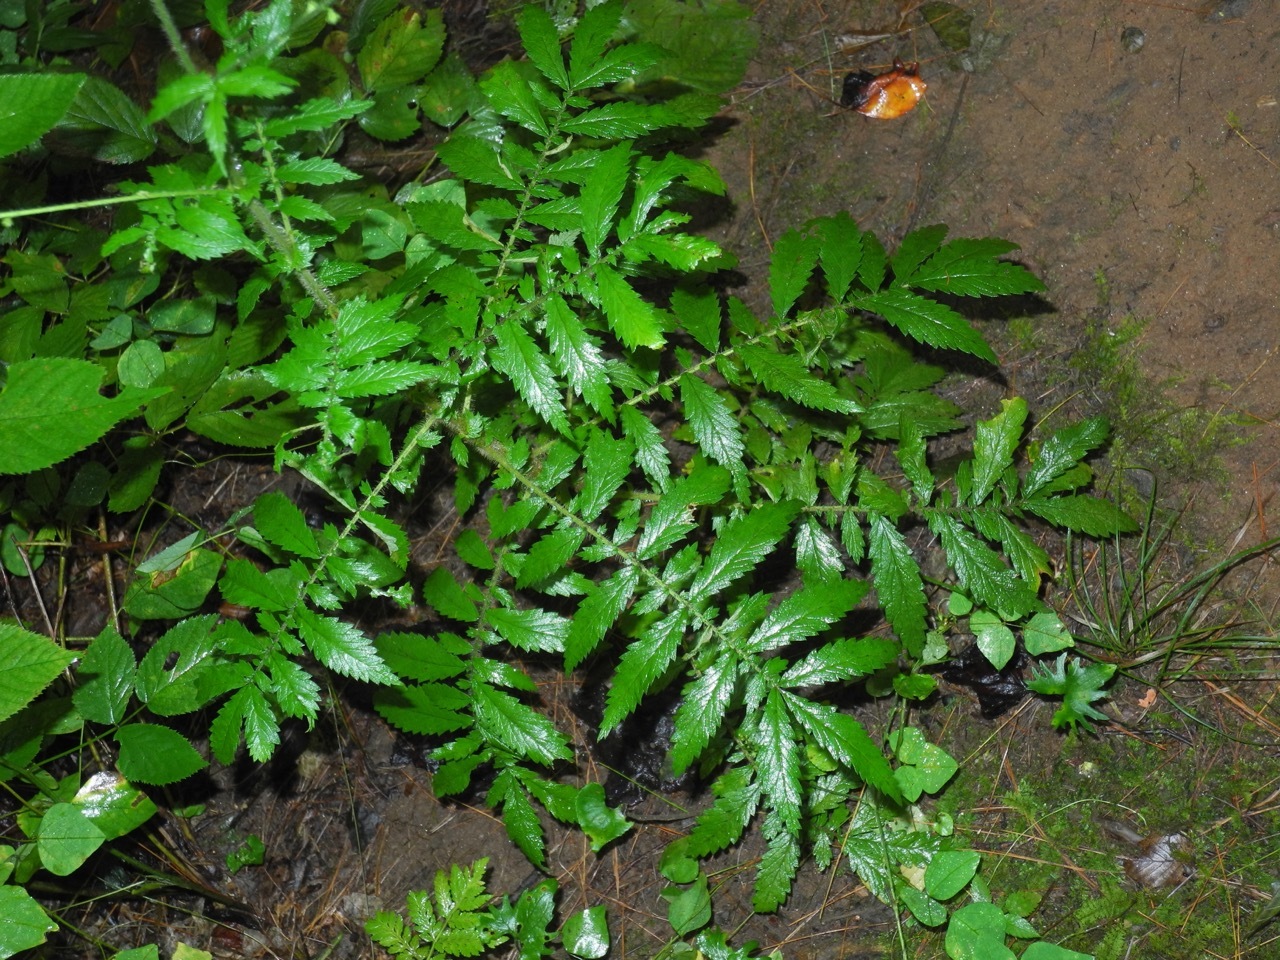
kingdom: Plantae
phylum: Tracheophyta
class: Magnoliopsida
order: Rosales
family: Rosaceae
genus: Agrimonia
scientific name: Agrimonia parviflora
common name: Harvest-lice
